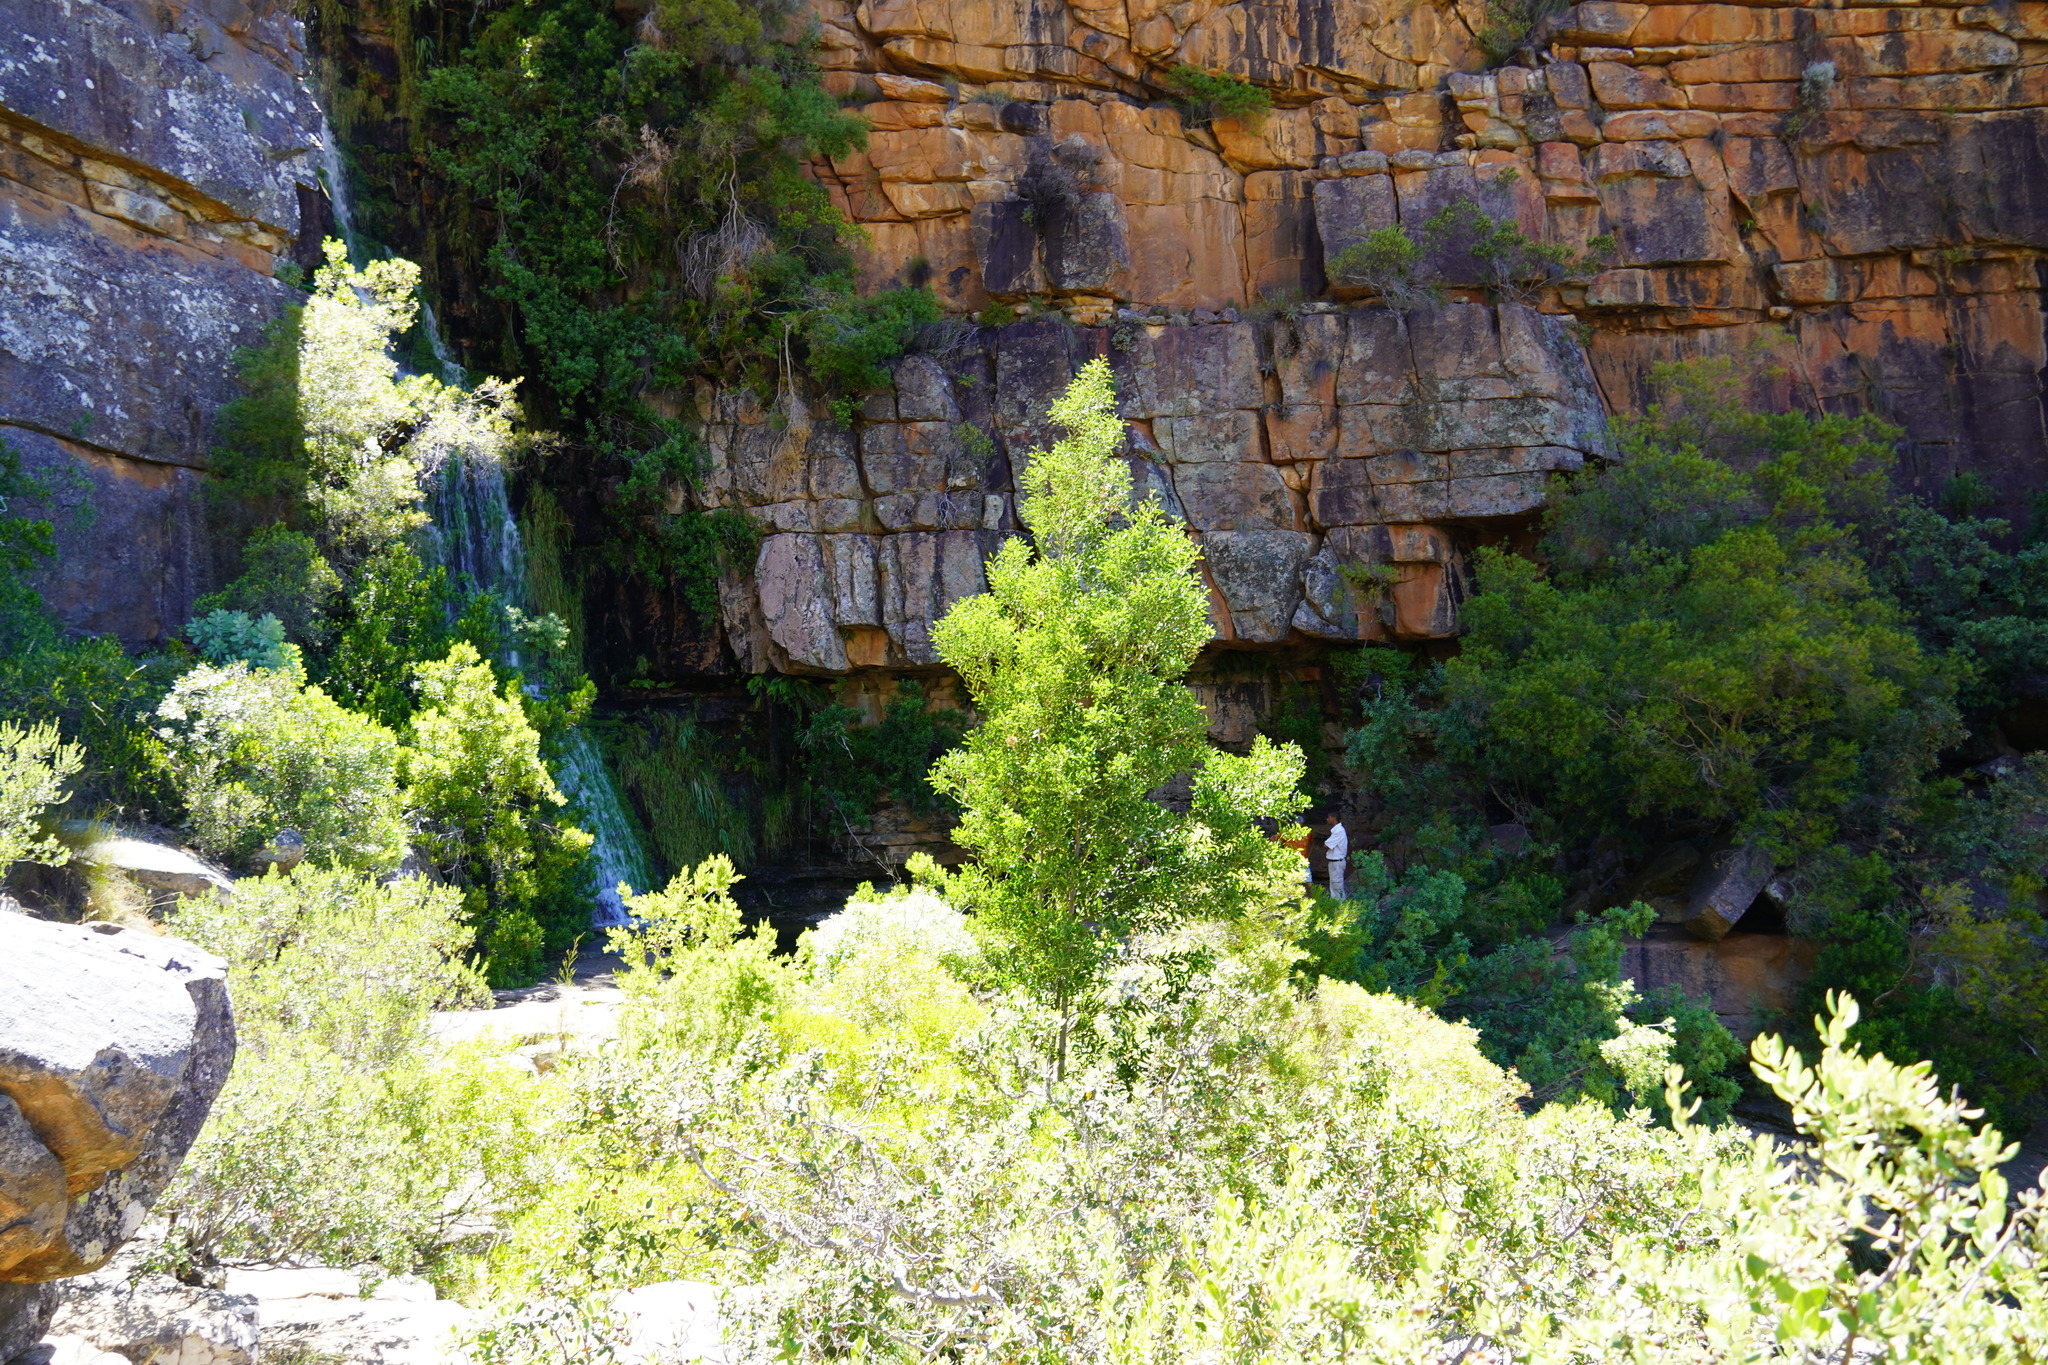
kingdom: Plantae
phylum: Tracheophyta
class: Magnoliopsida
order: Fabales
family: Fabaceae
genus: Acacia
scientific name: Acacia melanoxylon
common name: Blackwood
